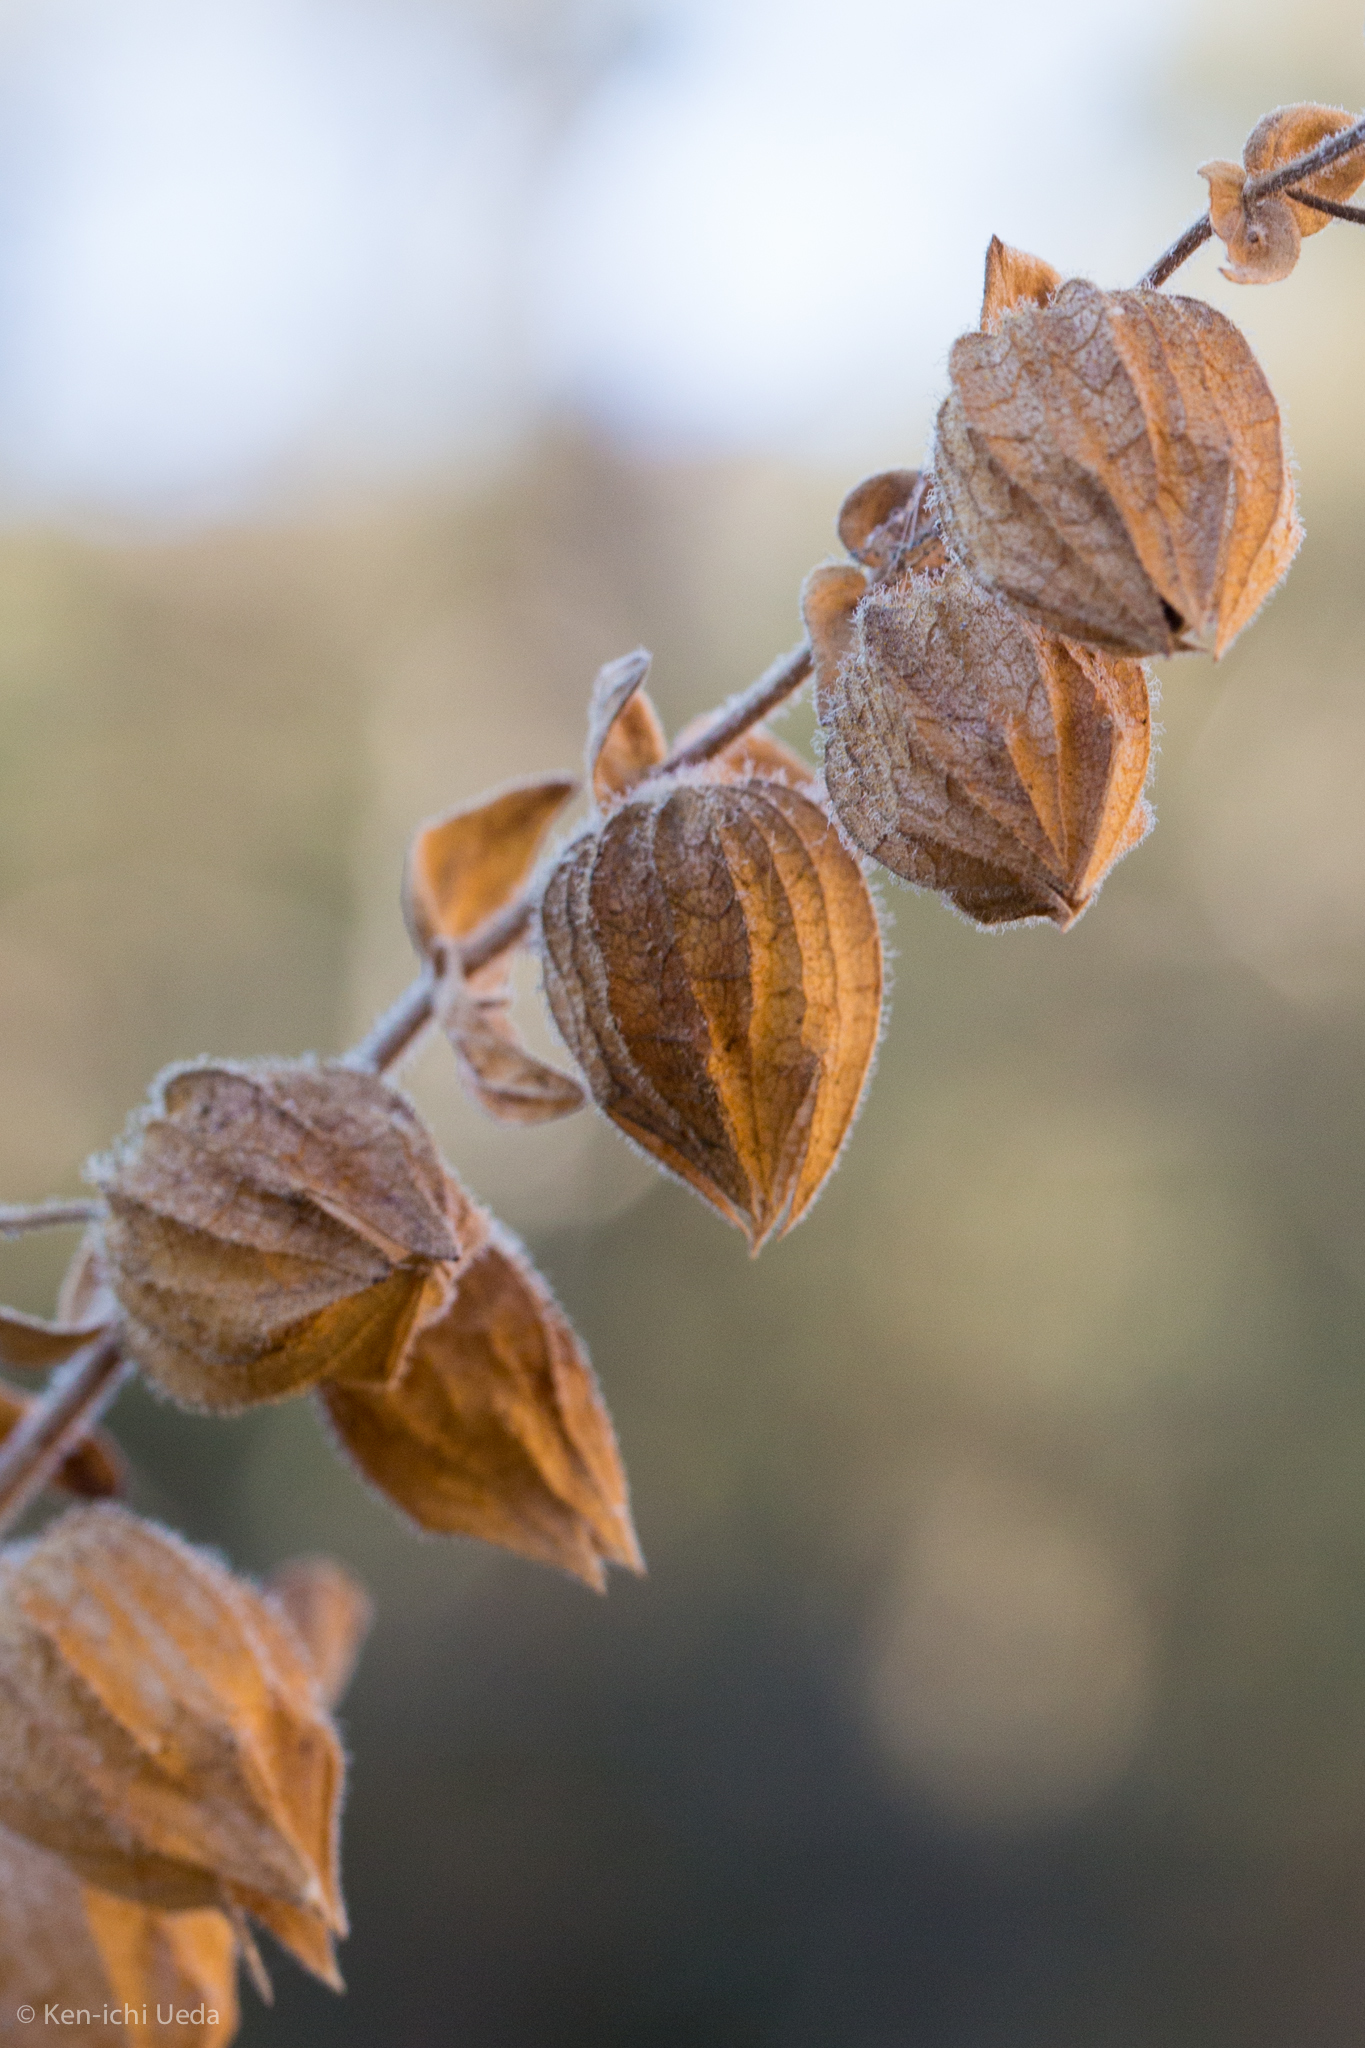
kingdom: Plantae
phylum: Tracheophyta
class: Magnoliopsida
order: Lamiales
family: Lamiaceae
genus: Lepechinia
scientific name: Lepechinia calycina
